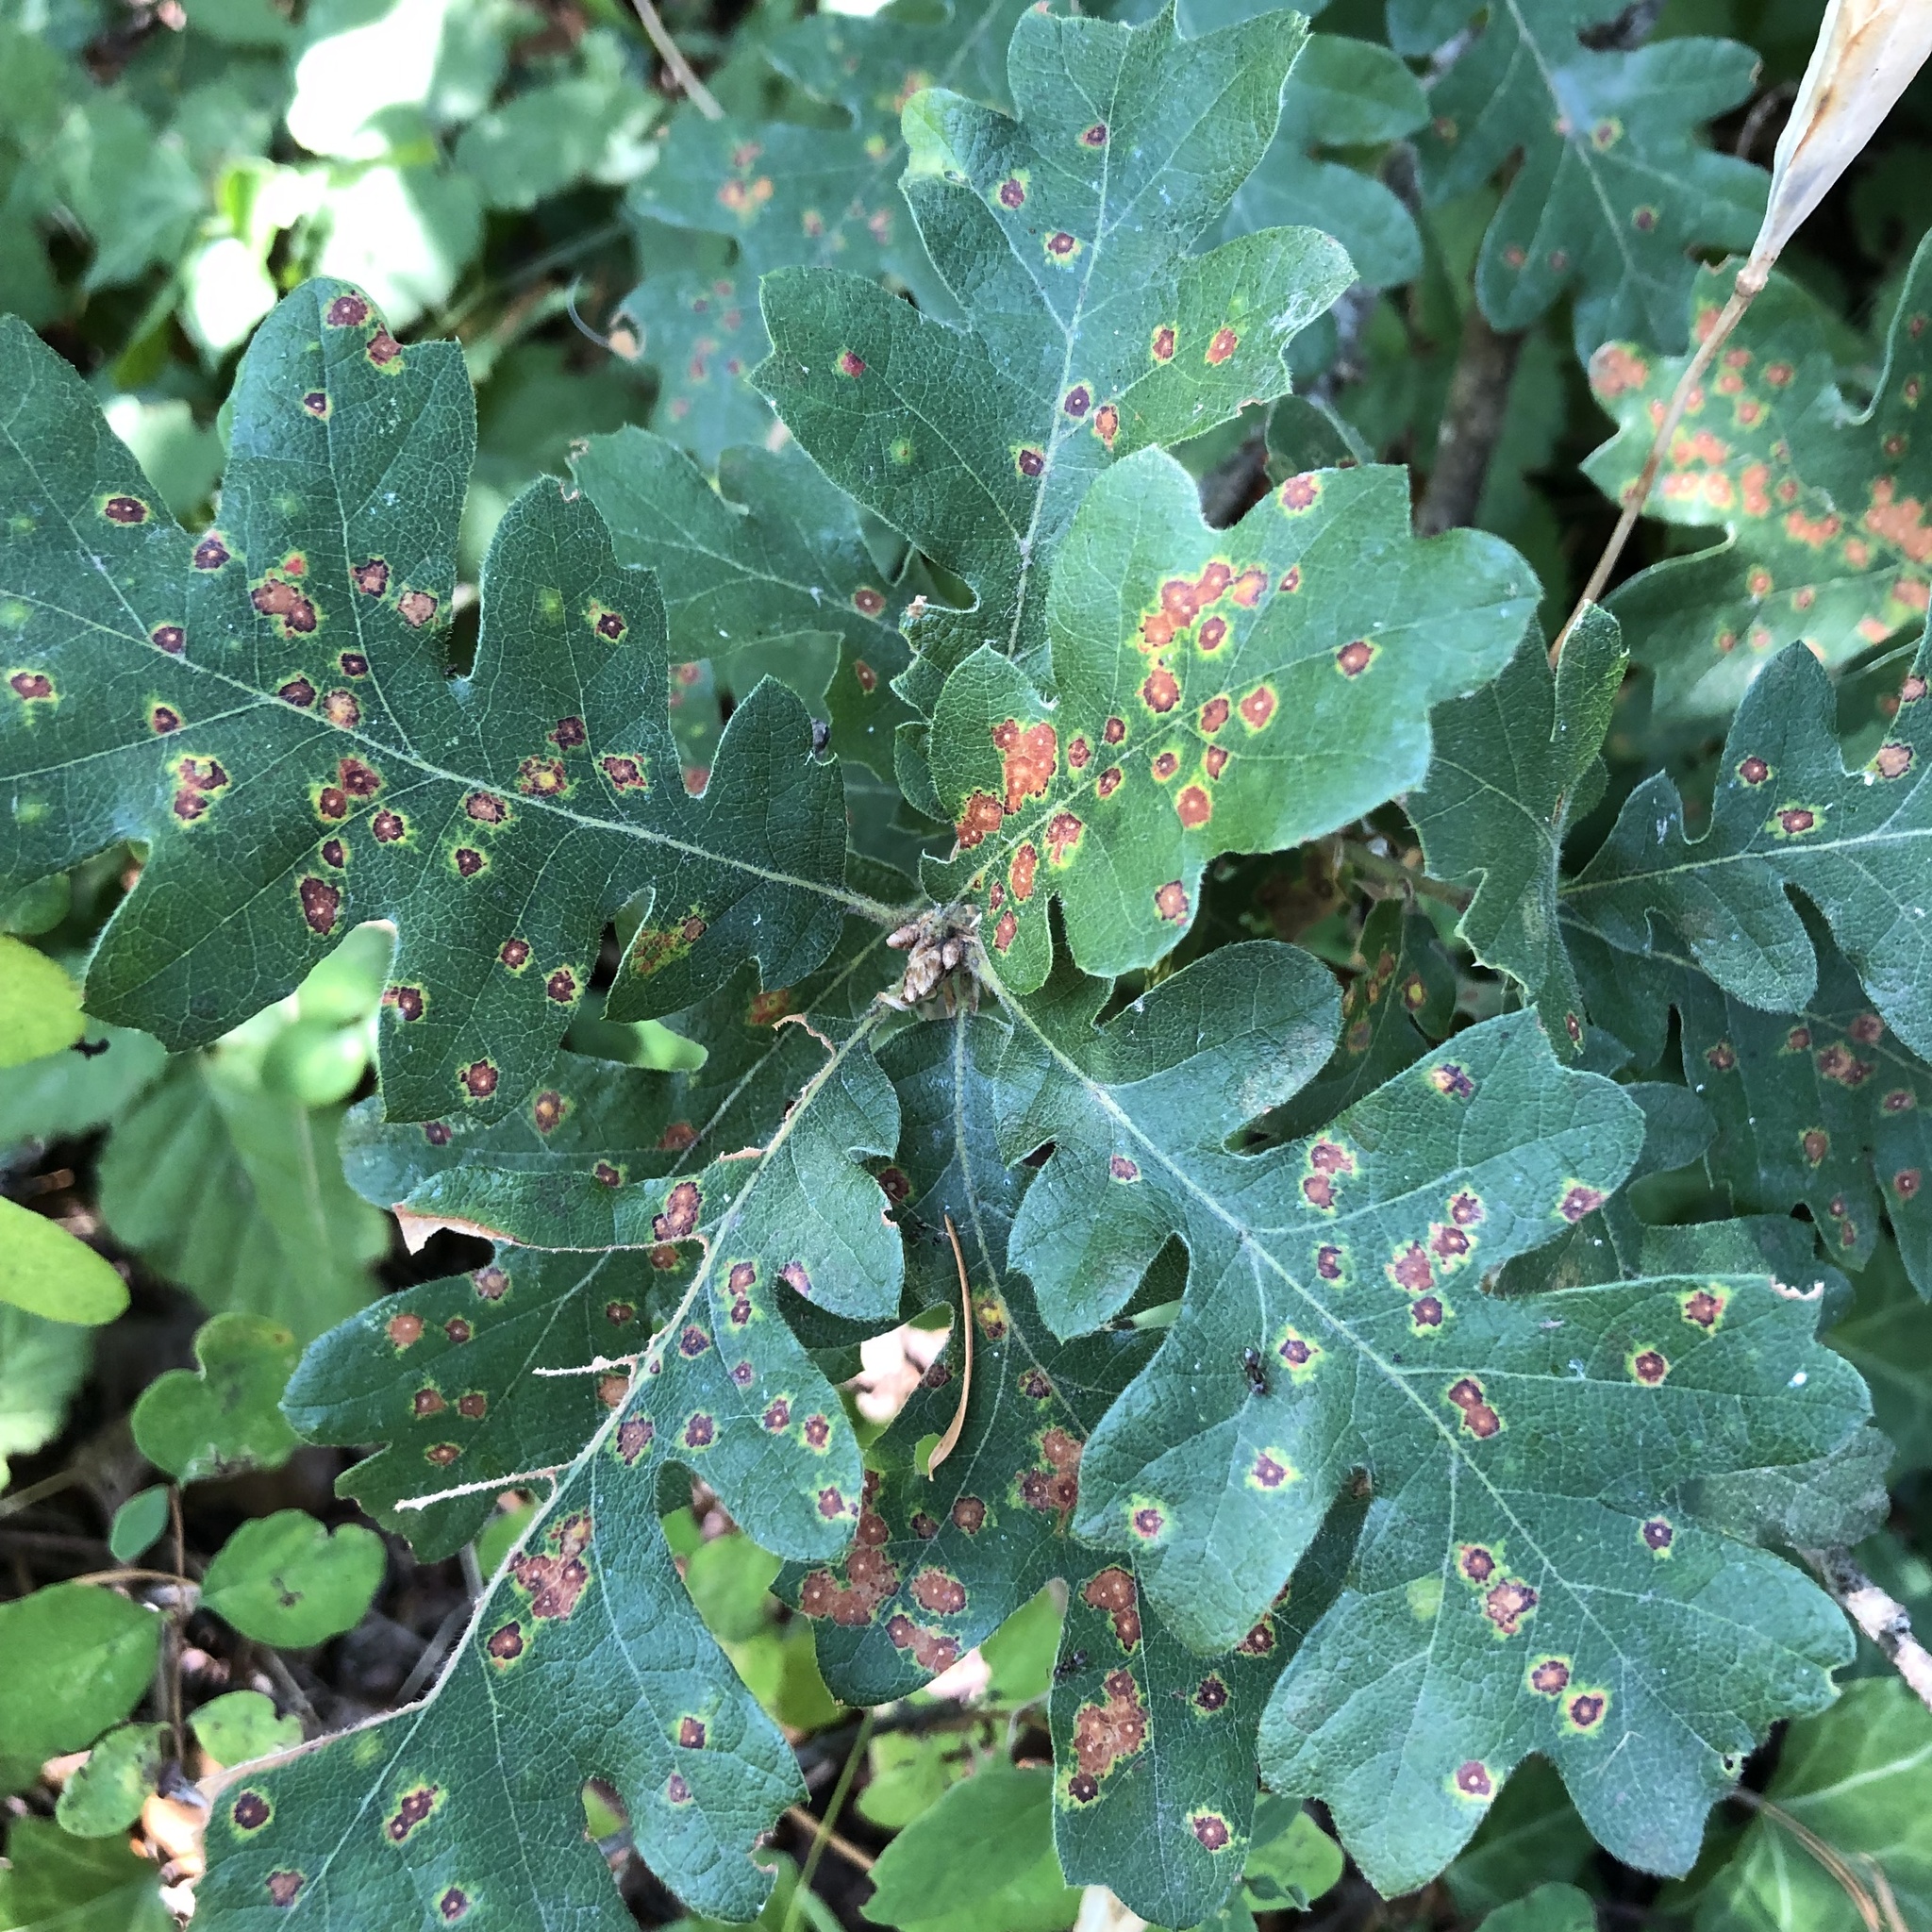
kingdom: Animalia
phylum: Arthropoda
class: Insecta
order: Hymenoptera
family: Cynipidae
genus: Neuroterus
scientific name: Neuroterus saltarius
